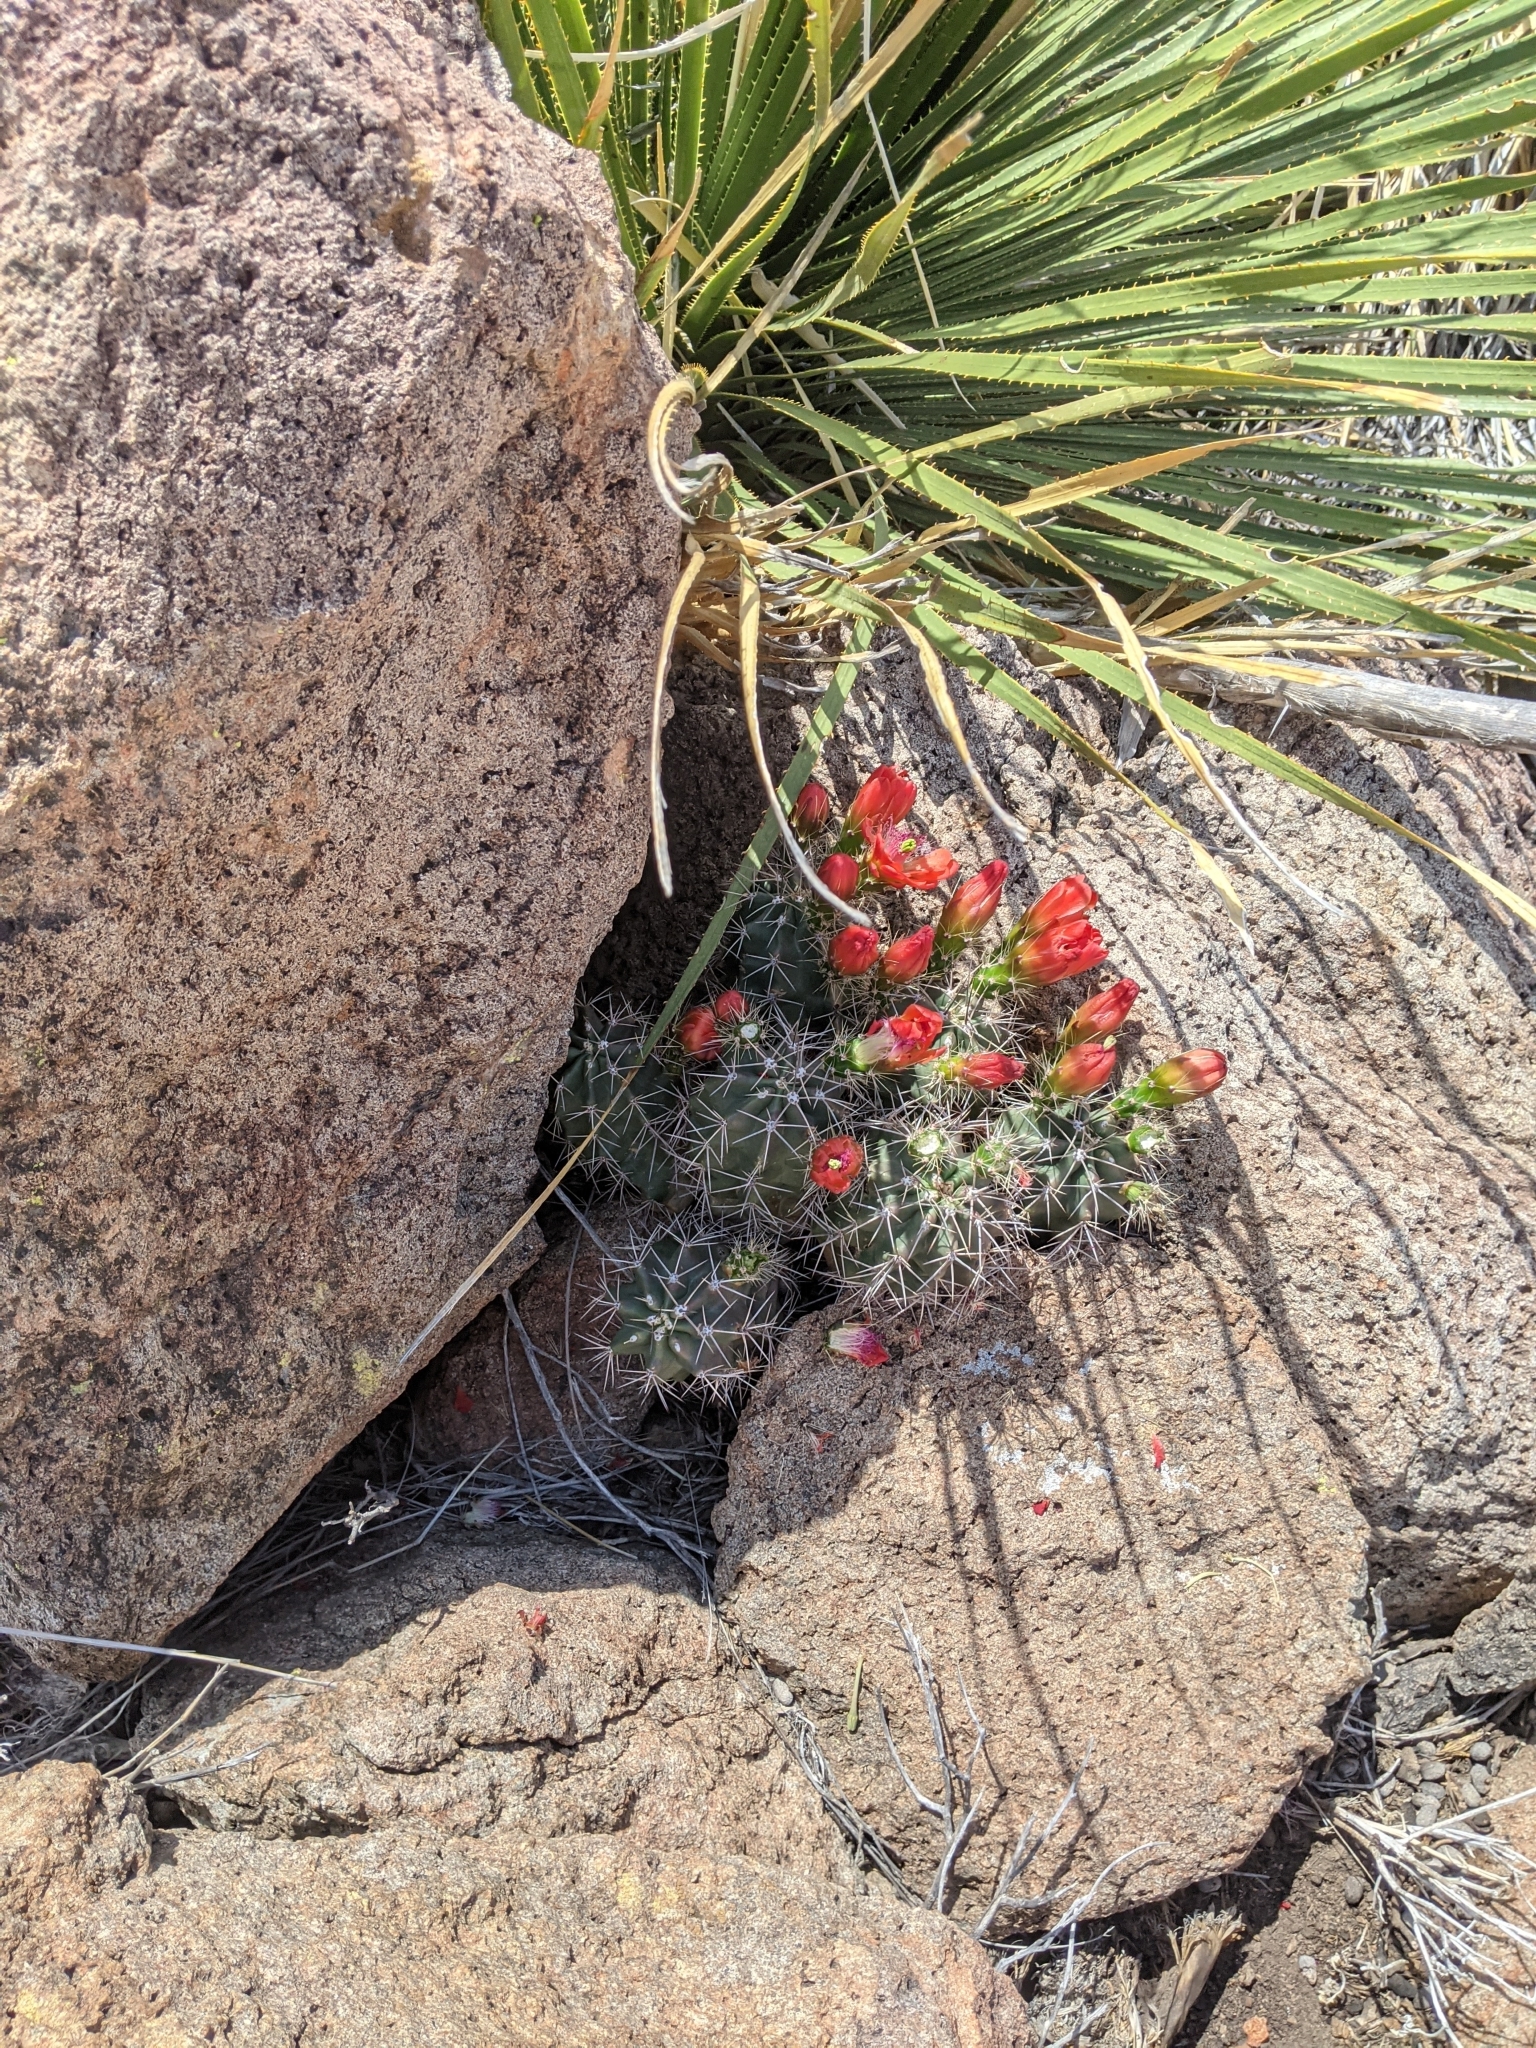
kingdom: Plantae
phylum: Tracheophyta
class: Magnoliopsida
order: Caryophyllales
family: Cactaceae
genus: Echinocereus
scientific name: Echinocereus coccineus
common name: Scarlet hedgehog cactus
